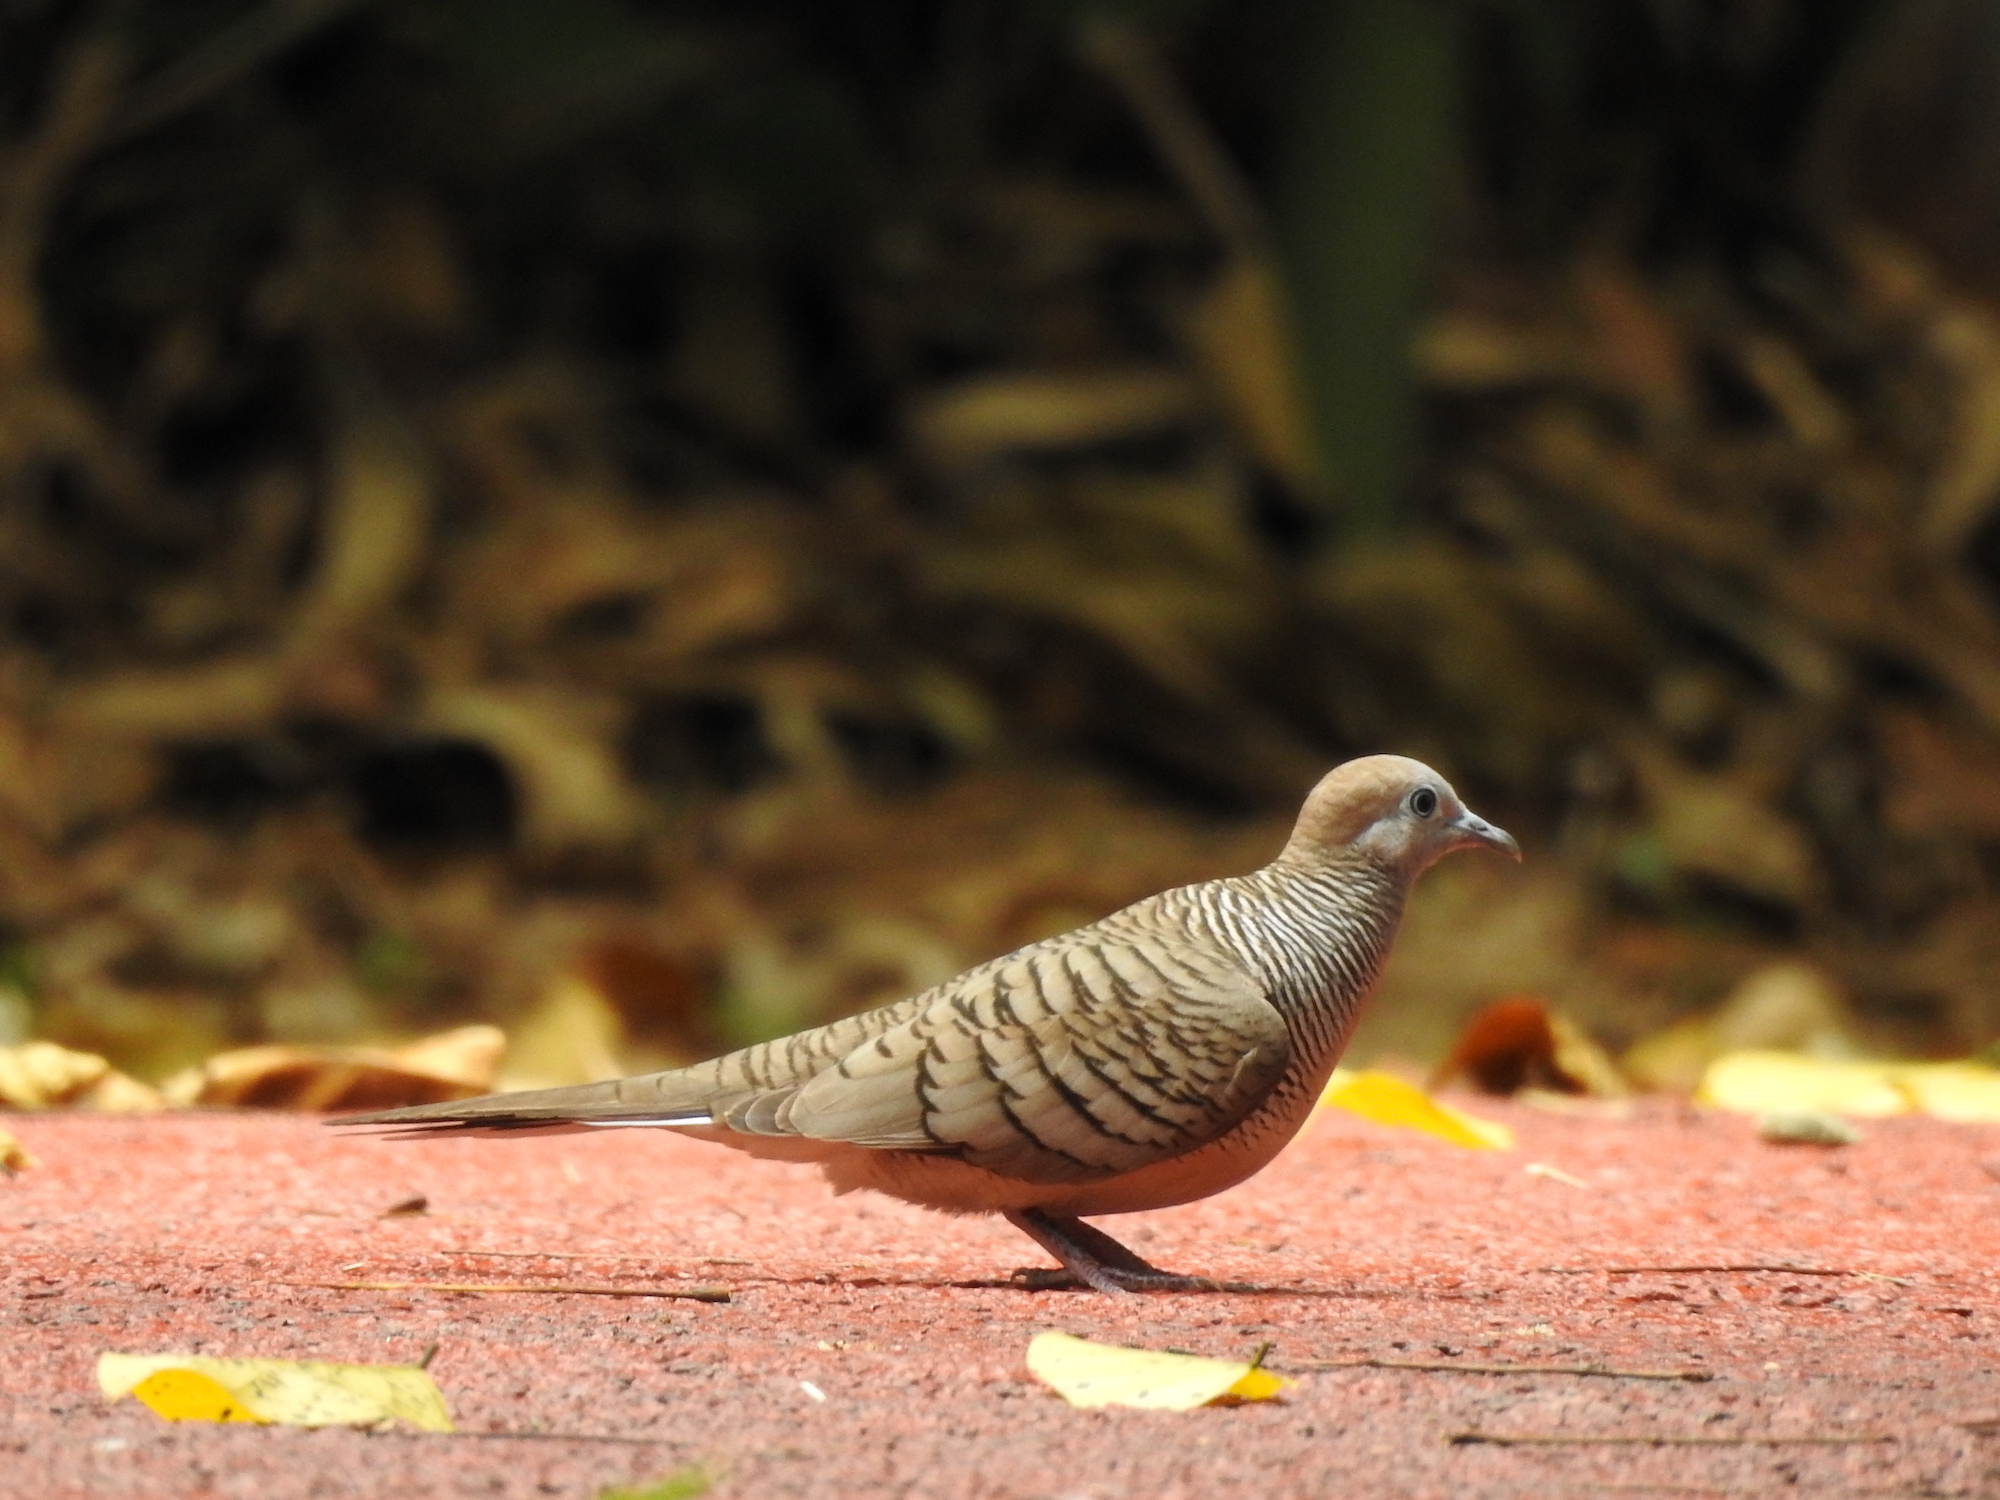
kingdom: Animalia
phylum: Chordata
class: Aves
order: Columbiformes
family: Columbidae
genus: Geopelia
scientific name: Geopelia striata
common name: Zebra dove
